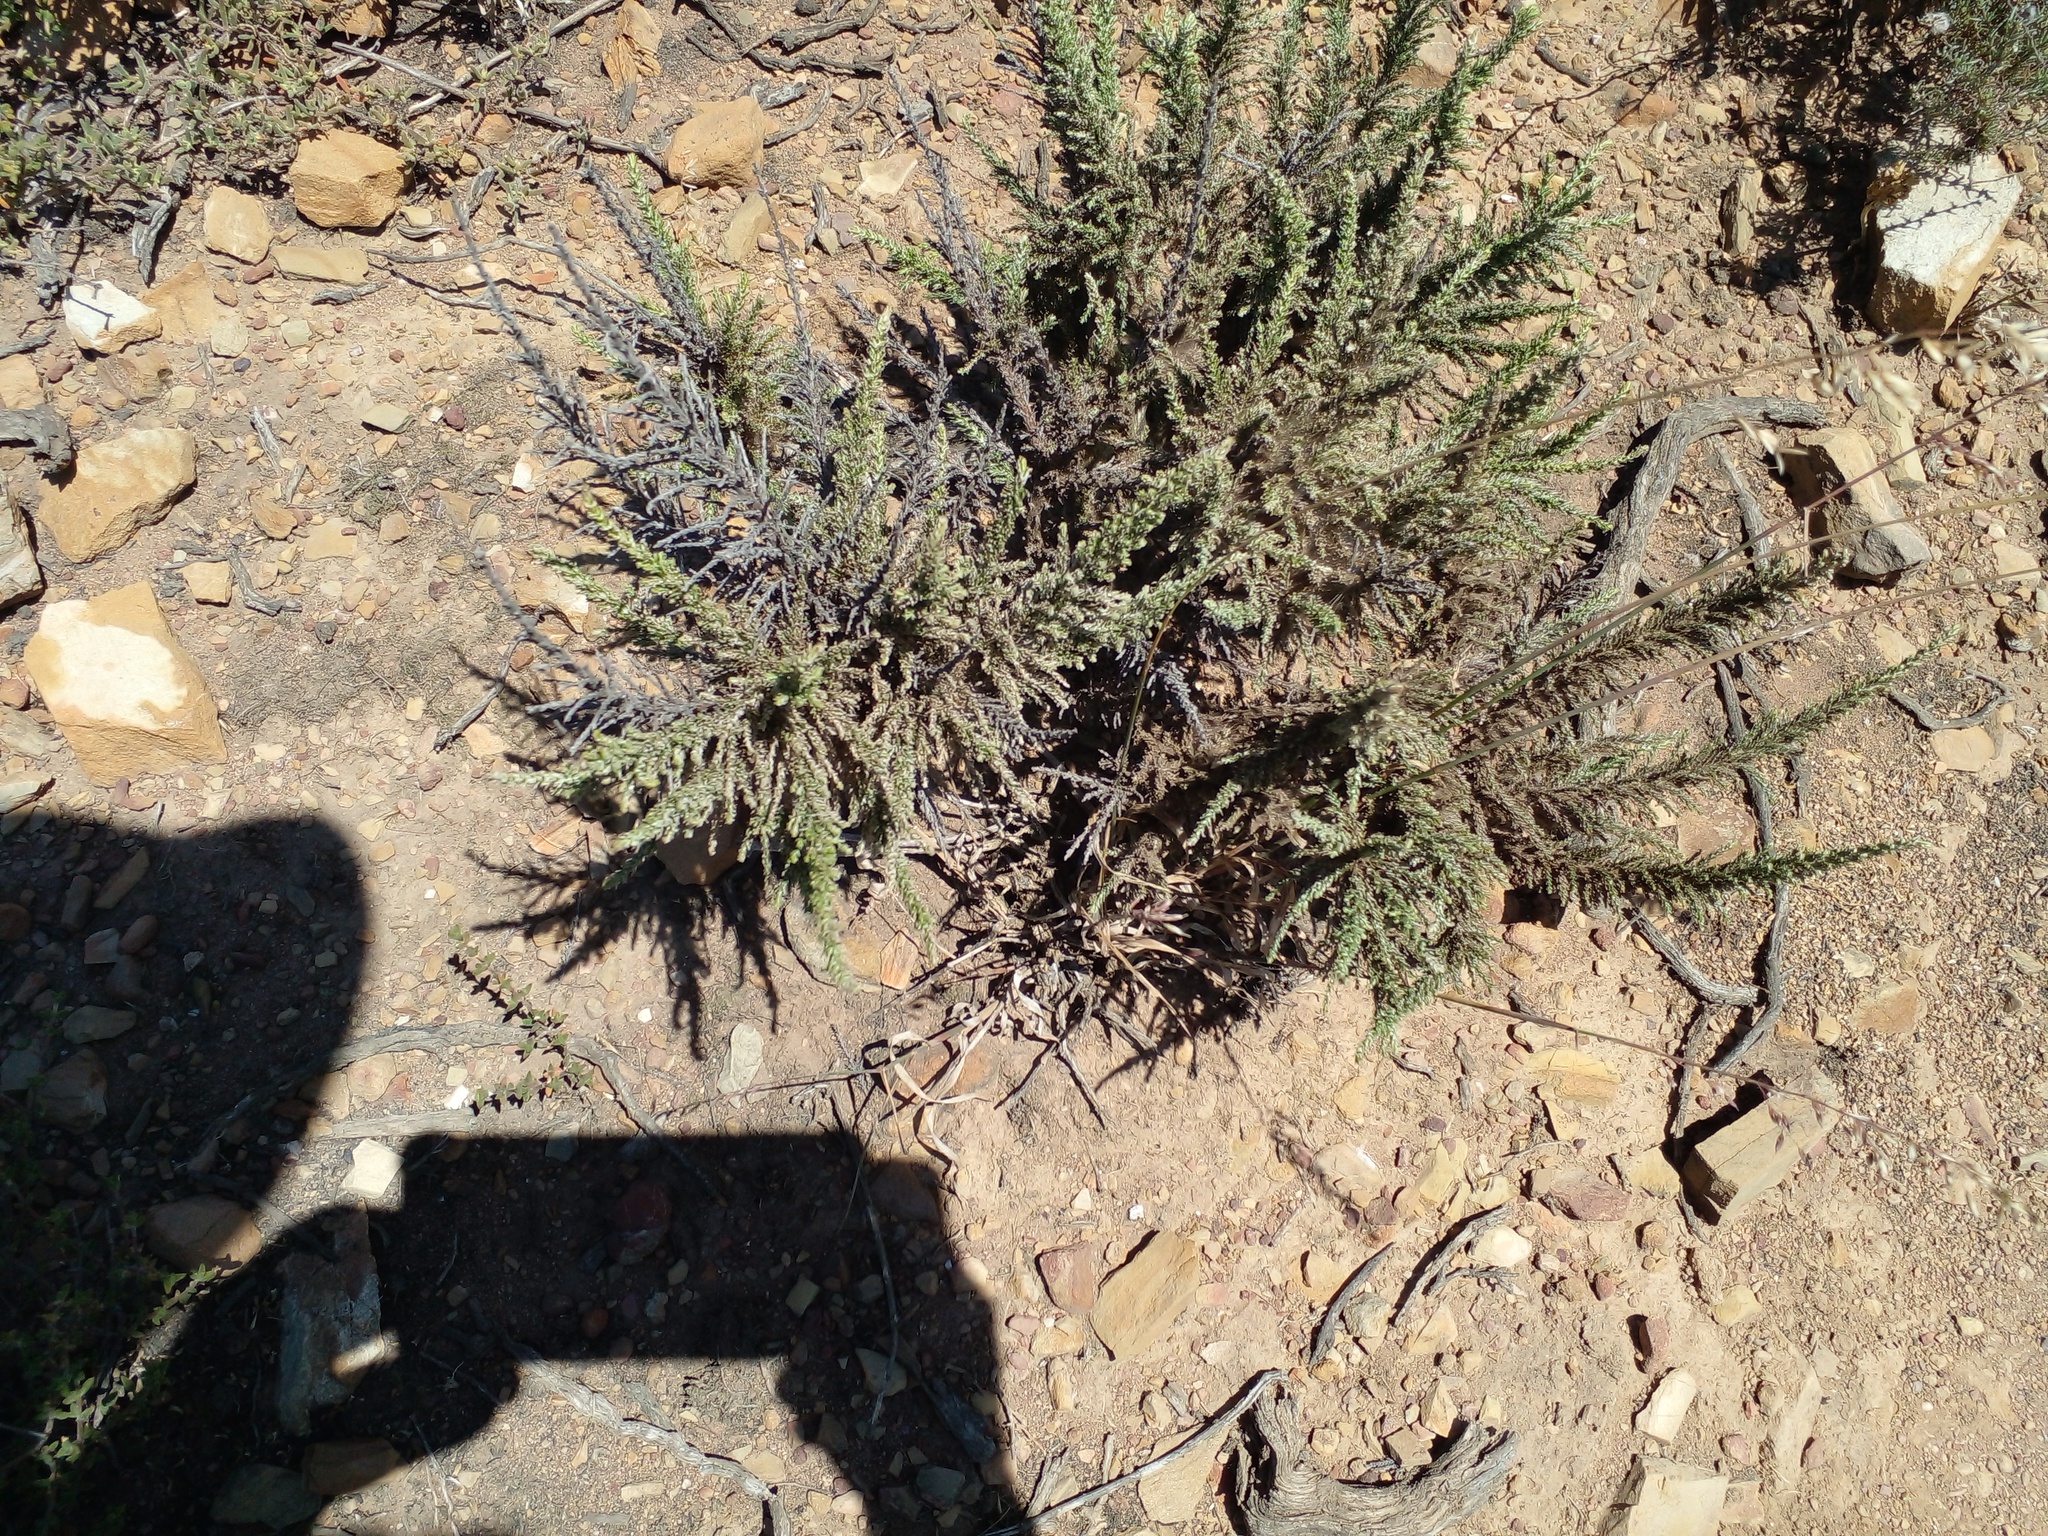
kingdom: Plantae
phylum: Tracheophyta
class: Magnoliopsida
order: Asterales
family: Asteraceae
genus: Dicerothamnus
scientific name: Dicerothamnus rhinocerotis
